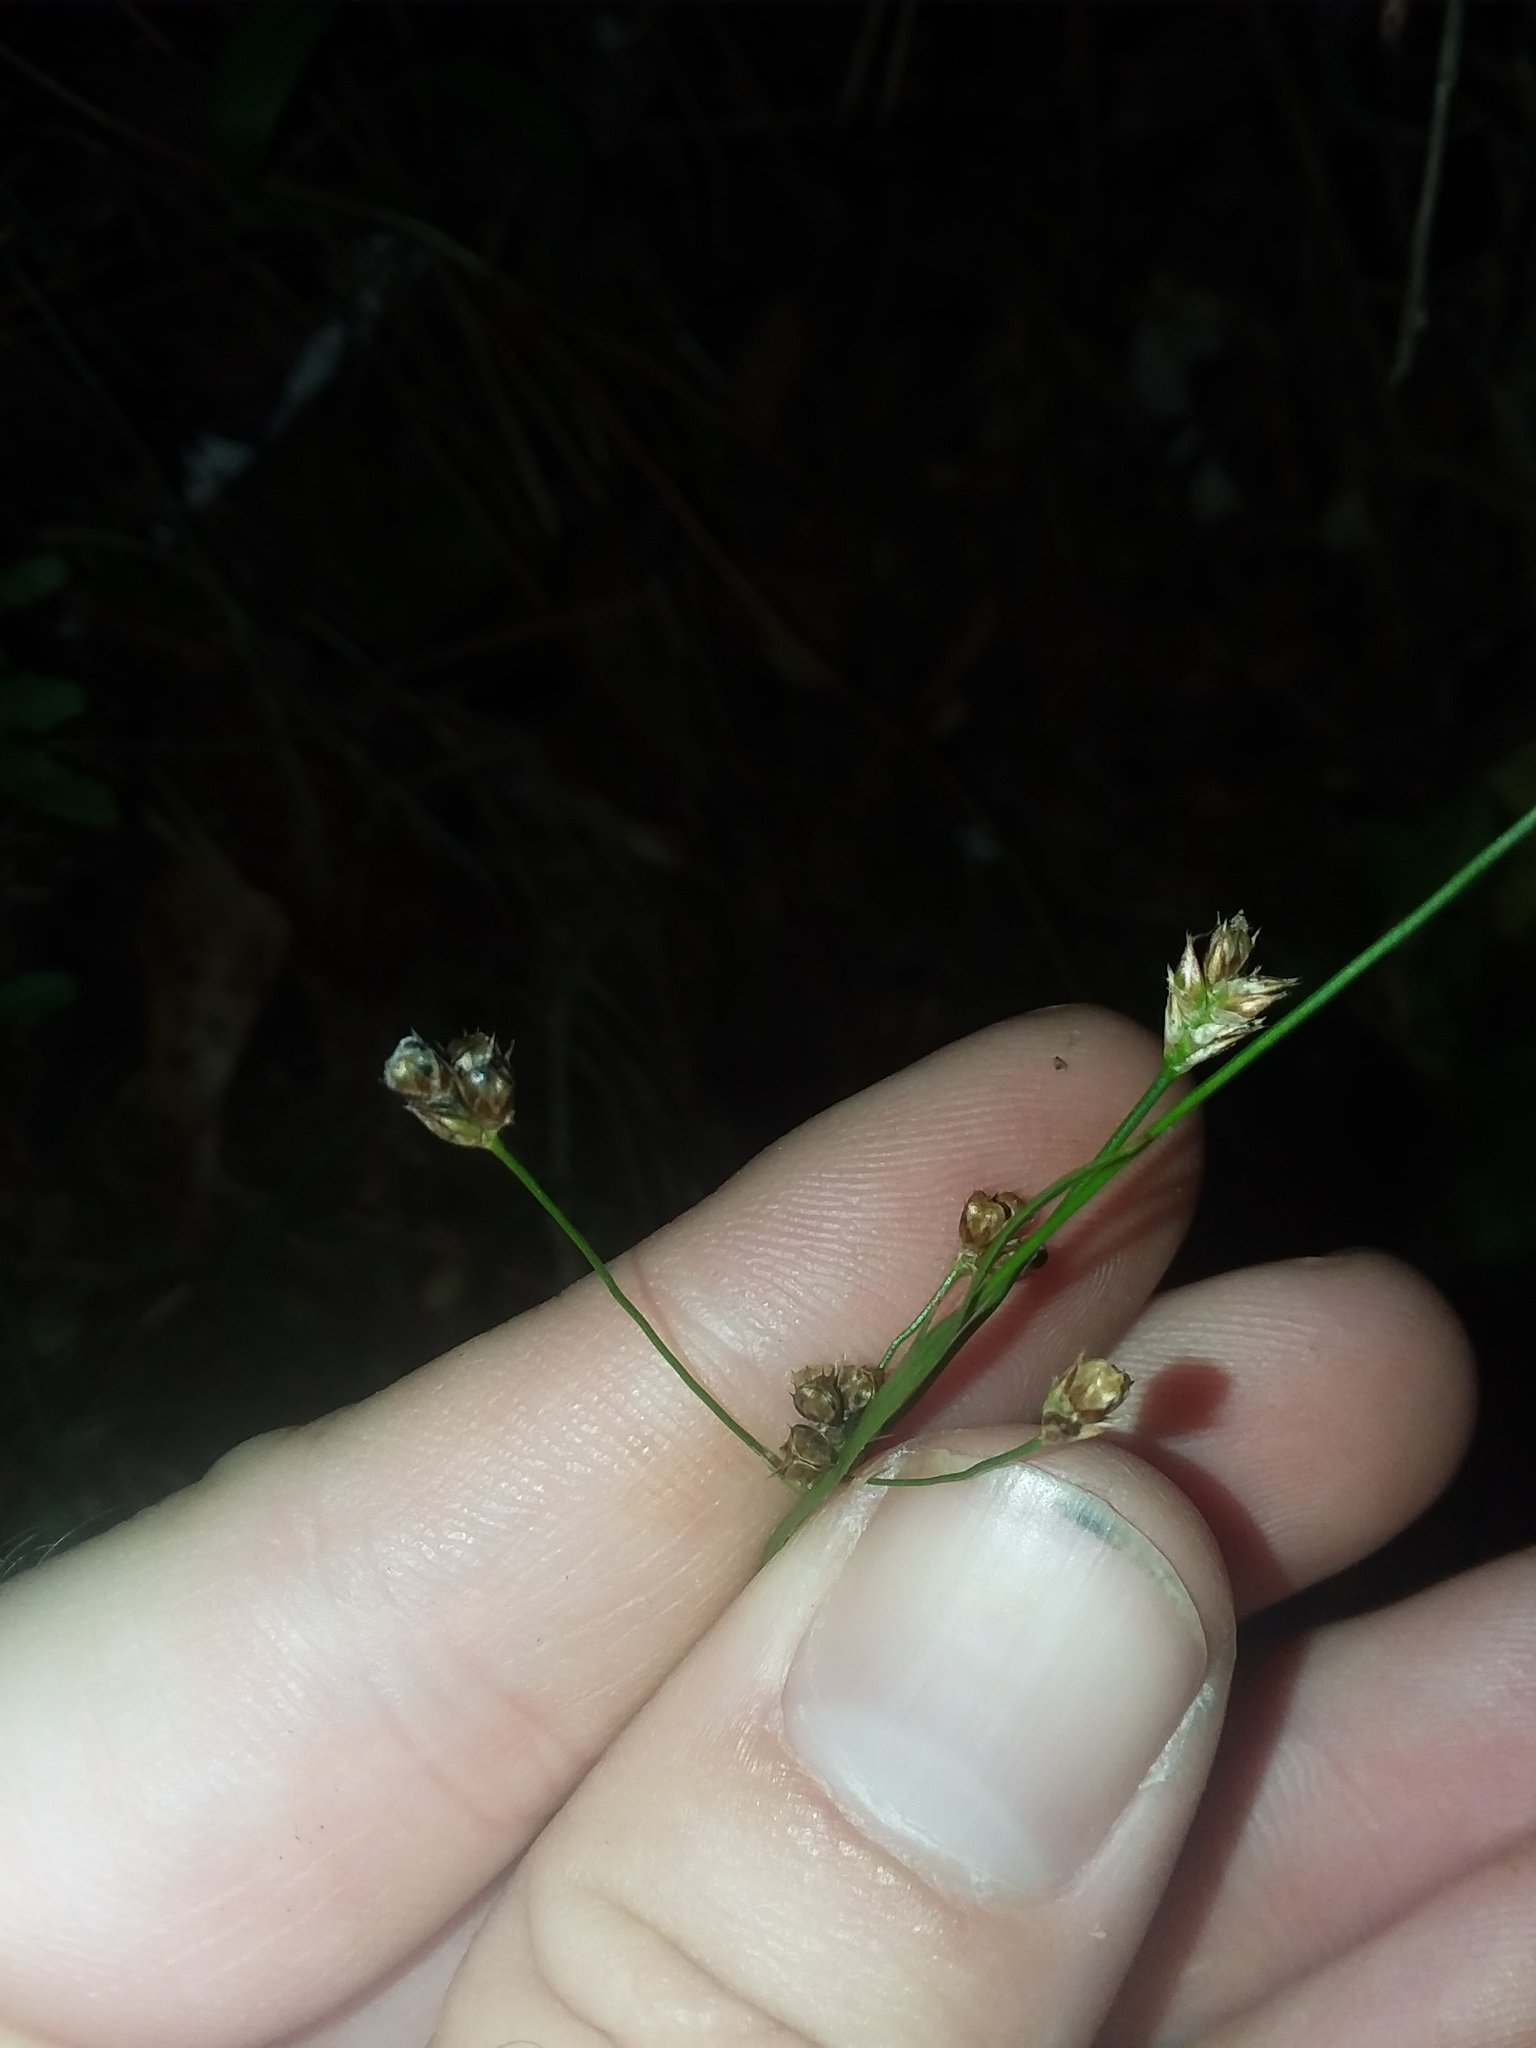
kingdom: Plantae
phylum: Tracheophyta
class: Liliopsida
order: Poales
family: Juncaceae
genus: Luzula
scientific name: Luzula echinata
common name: Hedgehog woodrush
